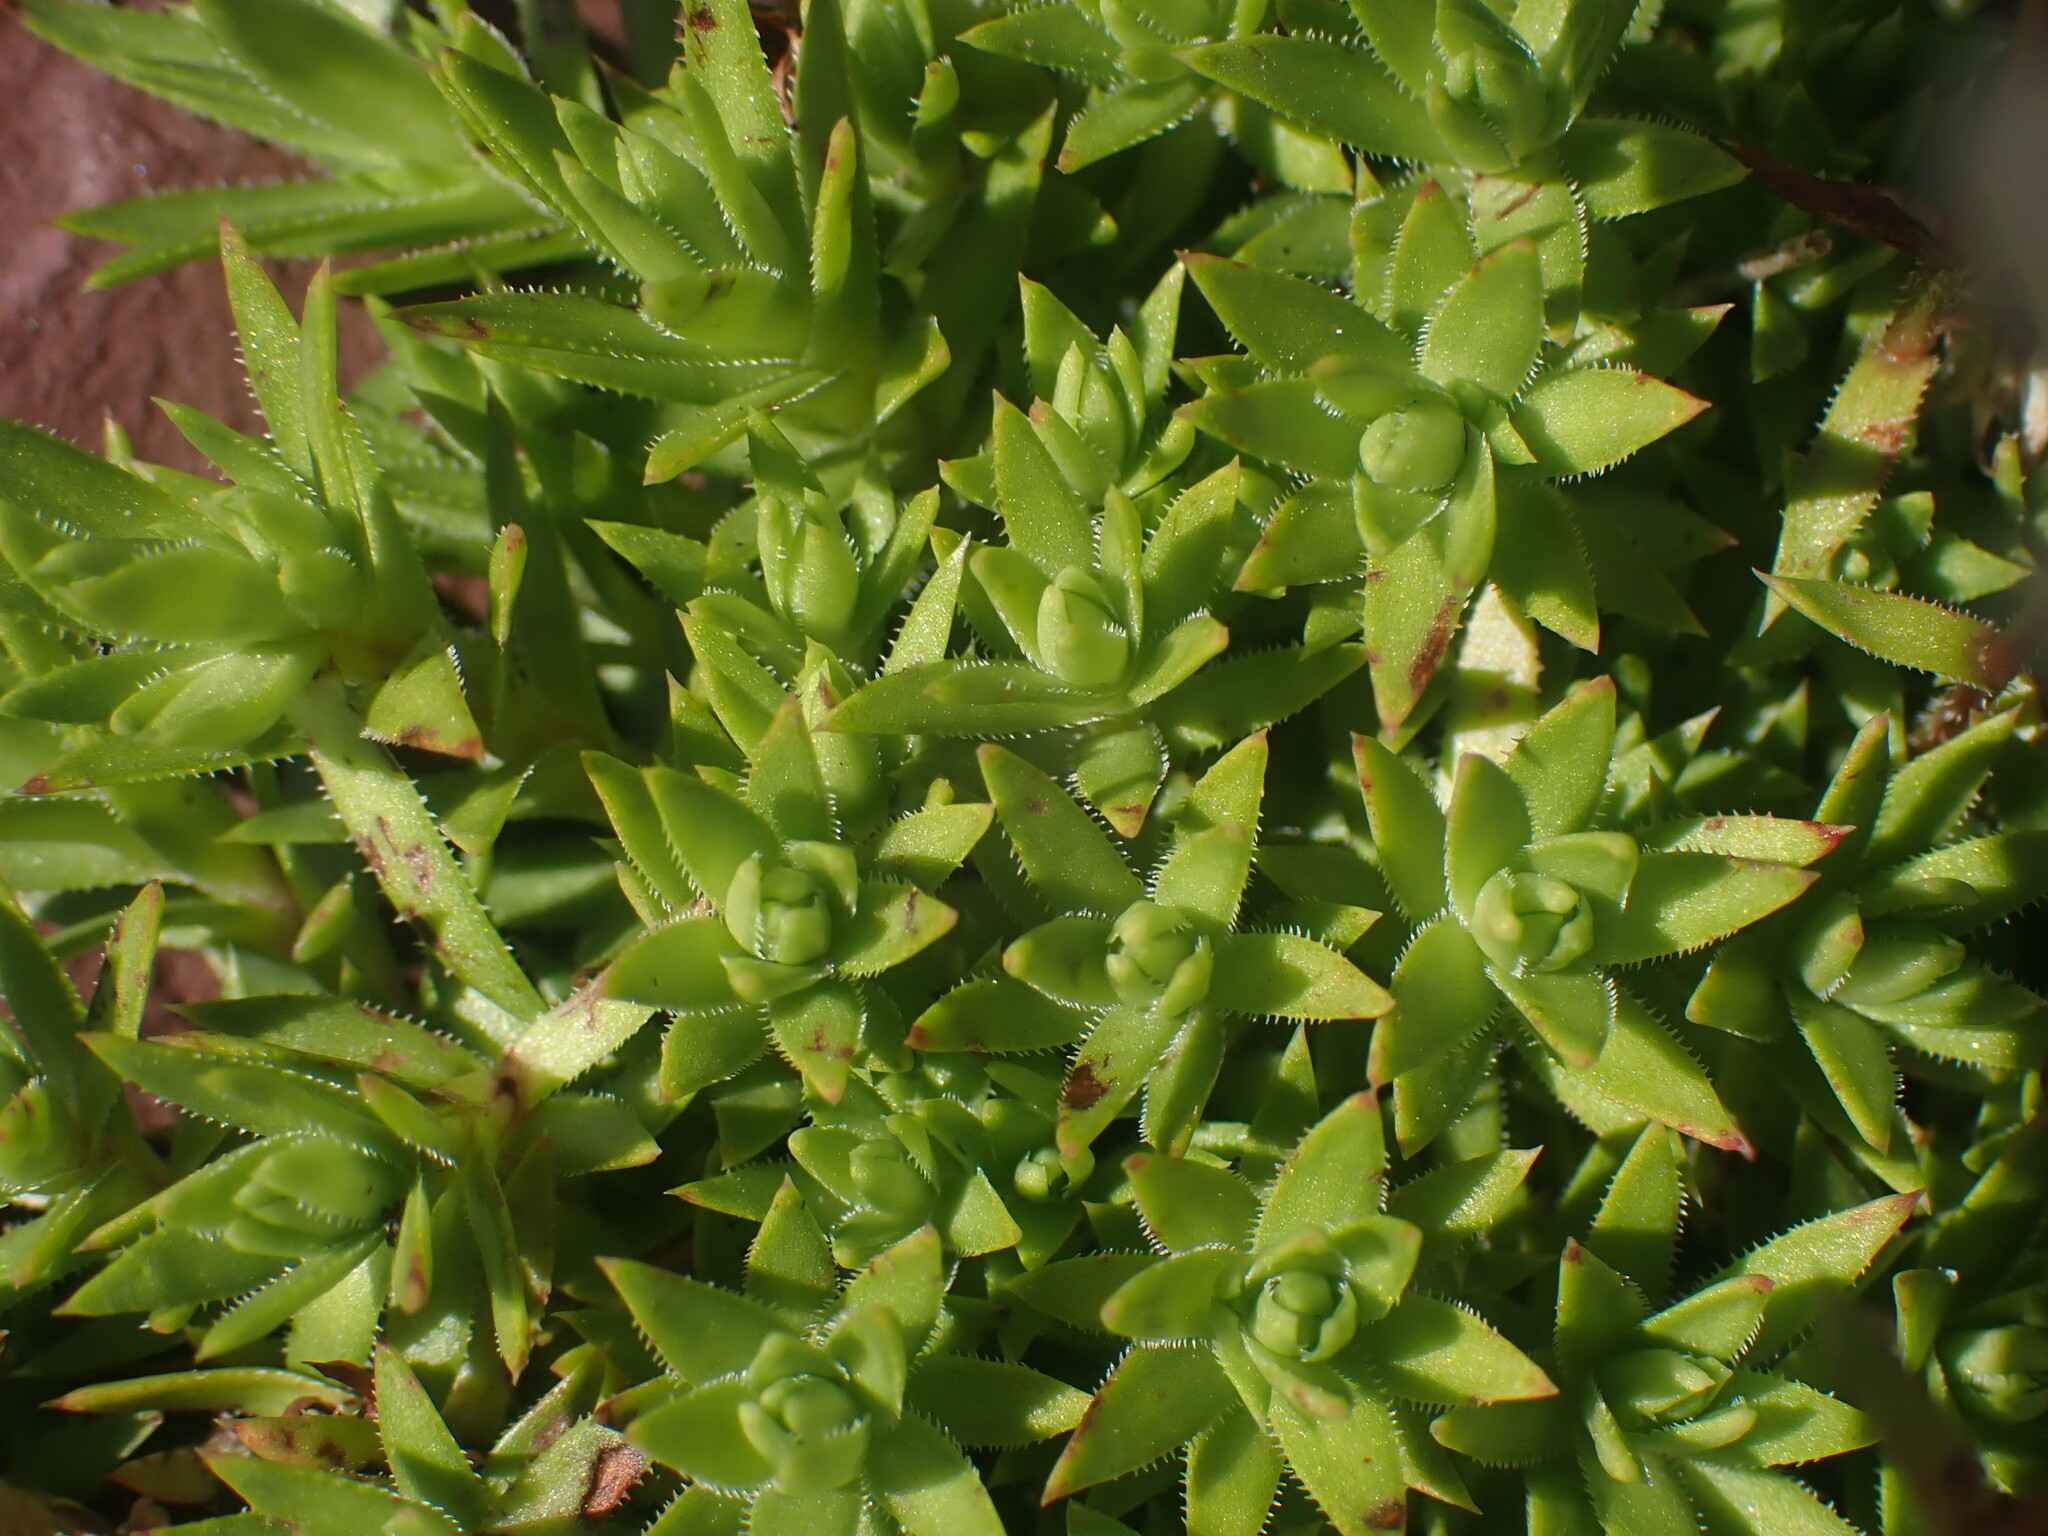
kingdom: Plantae
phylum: Tracheophyta
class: Magnoliopsida
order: Saxifragales
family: Saxifragaceae
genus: Saxifraga
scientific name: Saxifraga bronchialis
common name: Matted saxifrage
